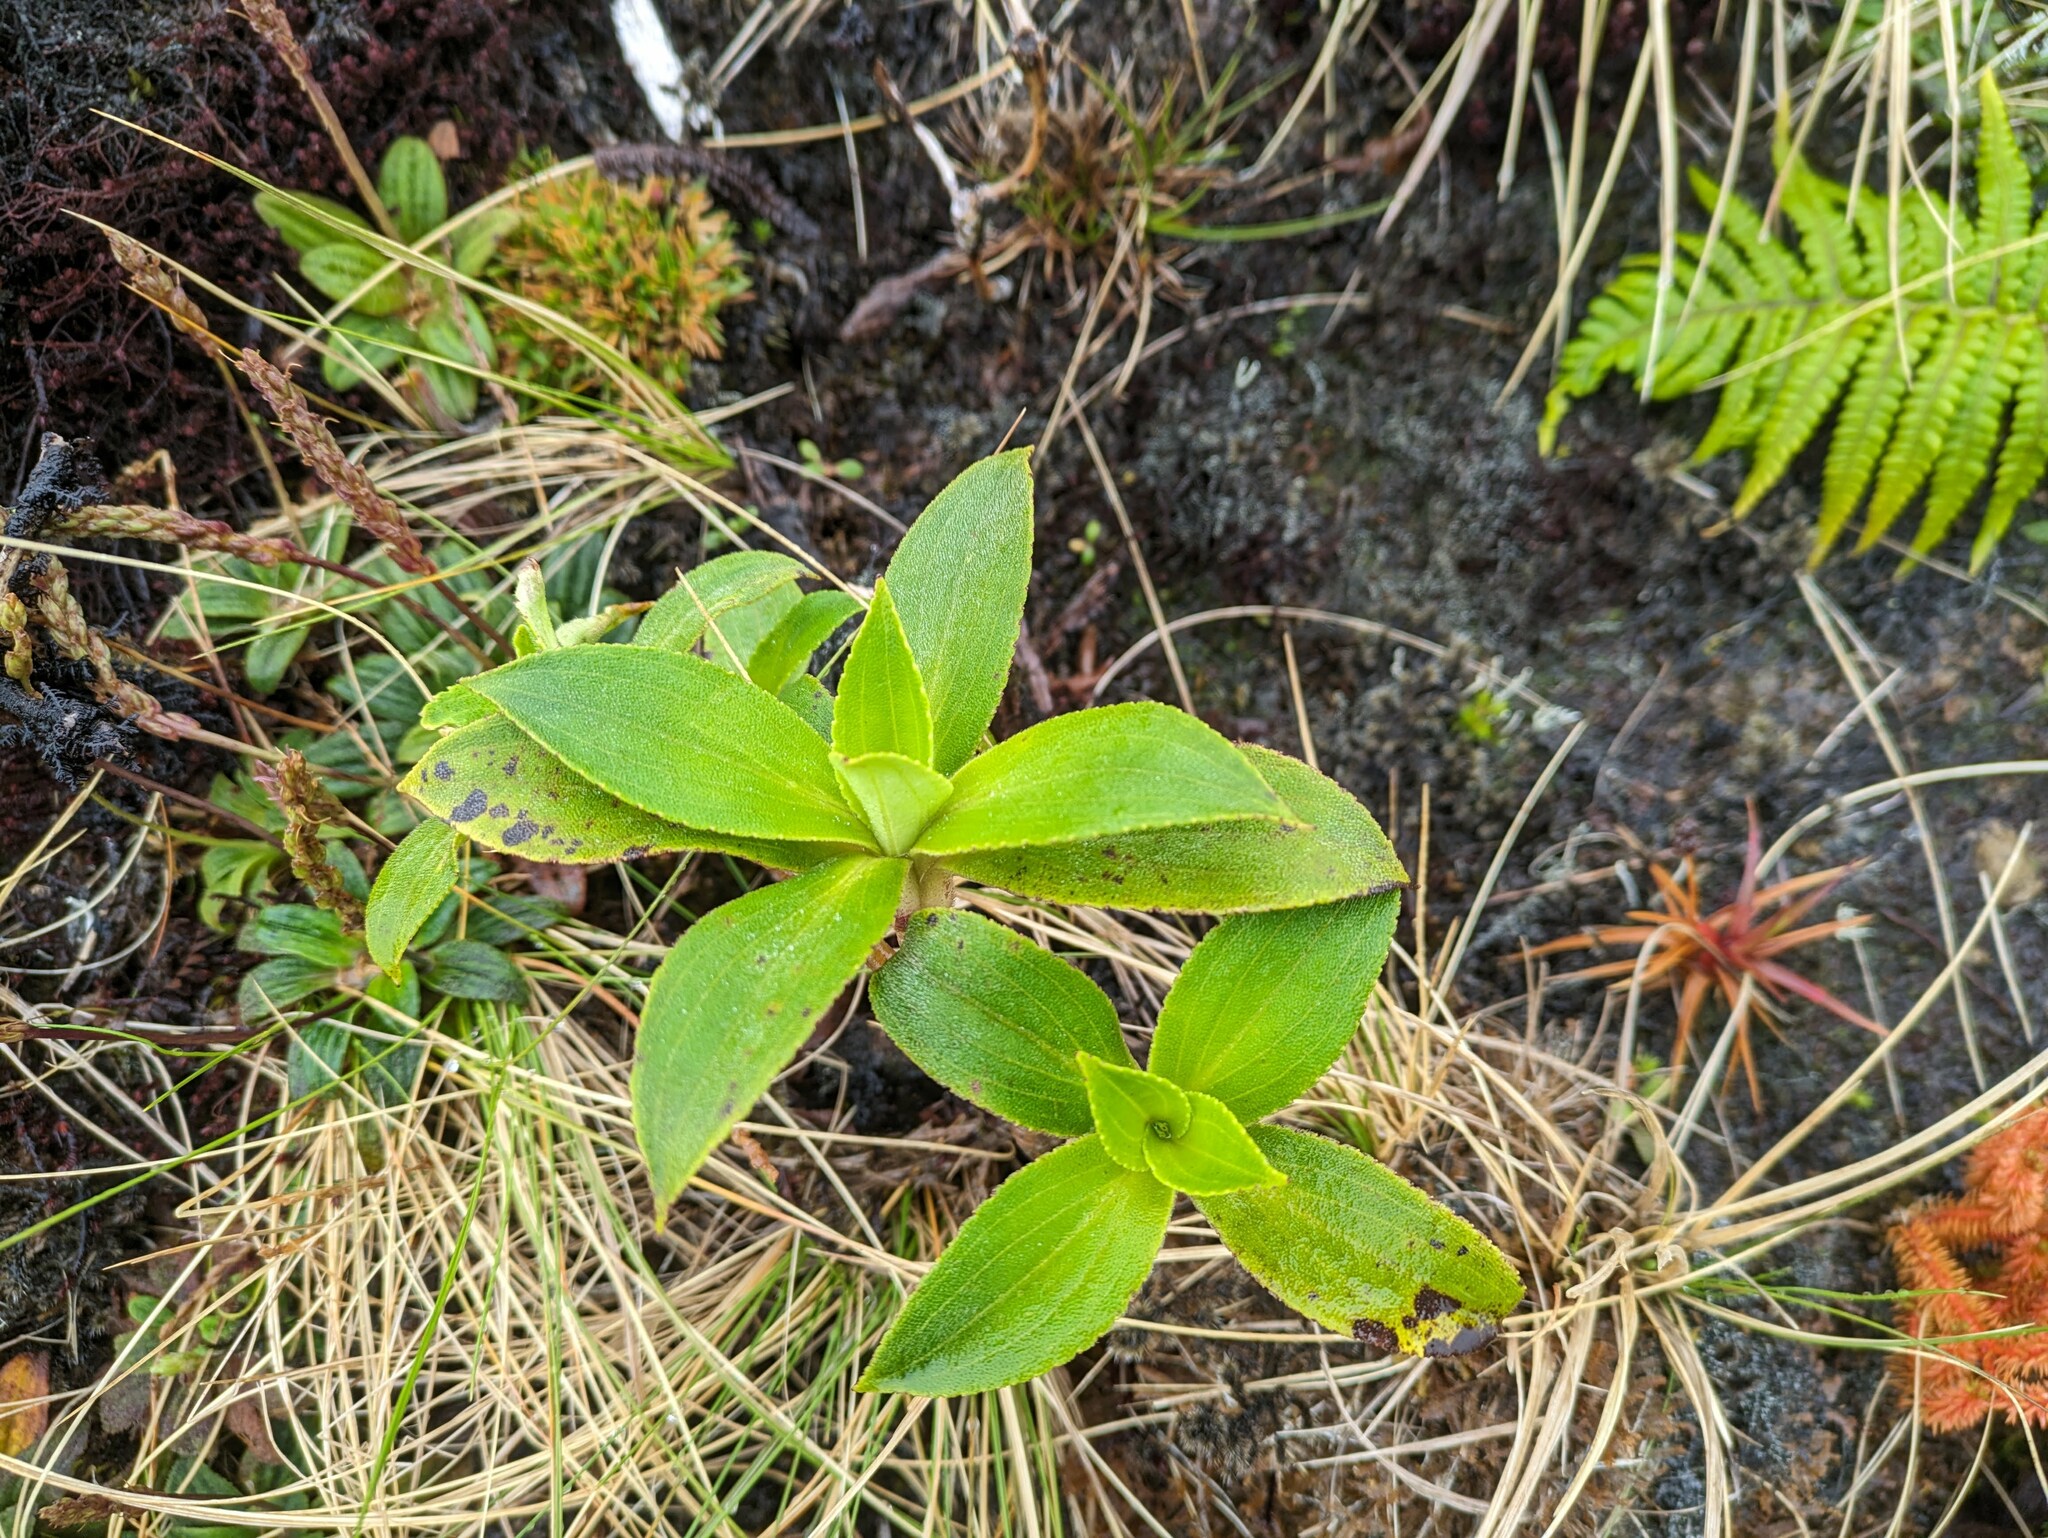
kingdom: Plantae
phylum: Tracheophyta
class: Magnoliopsida
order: Asterales
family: Asteraceae
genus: Dubautia
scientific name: Dubautia laxa
